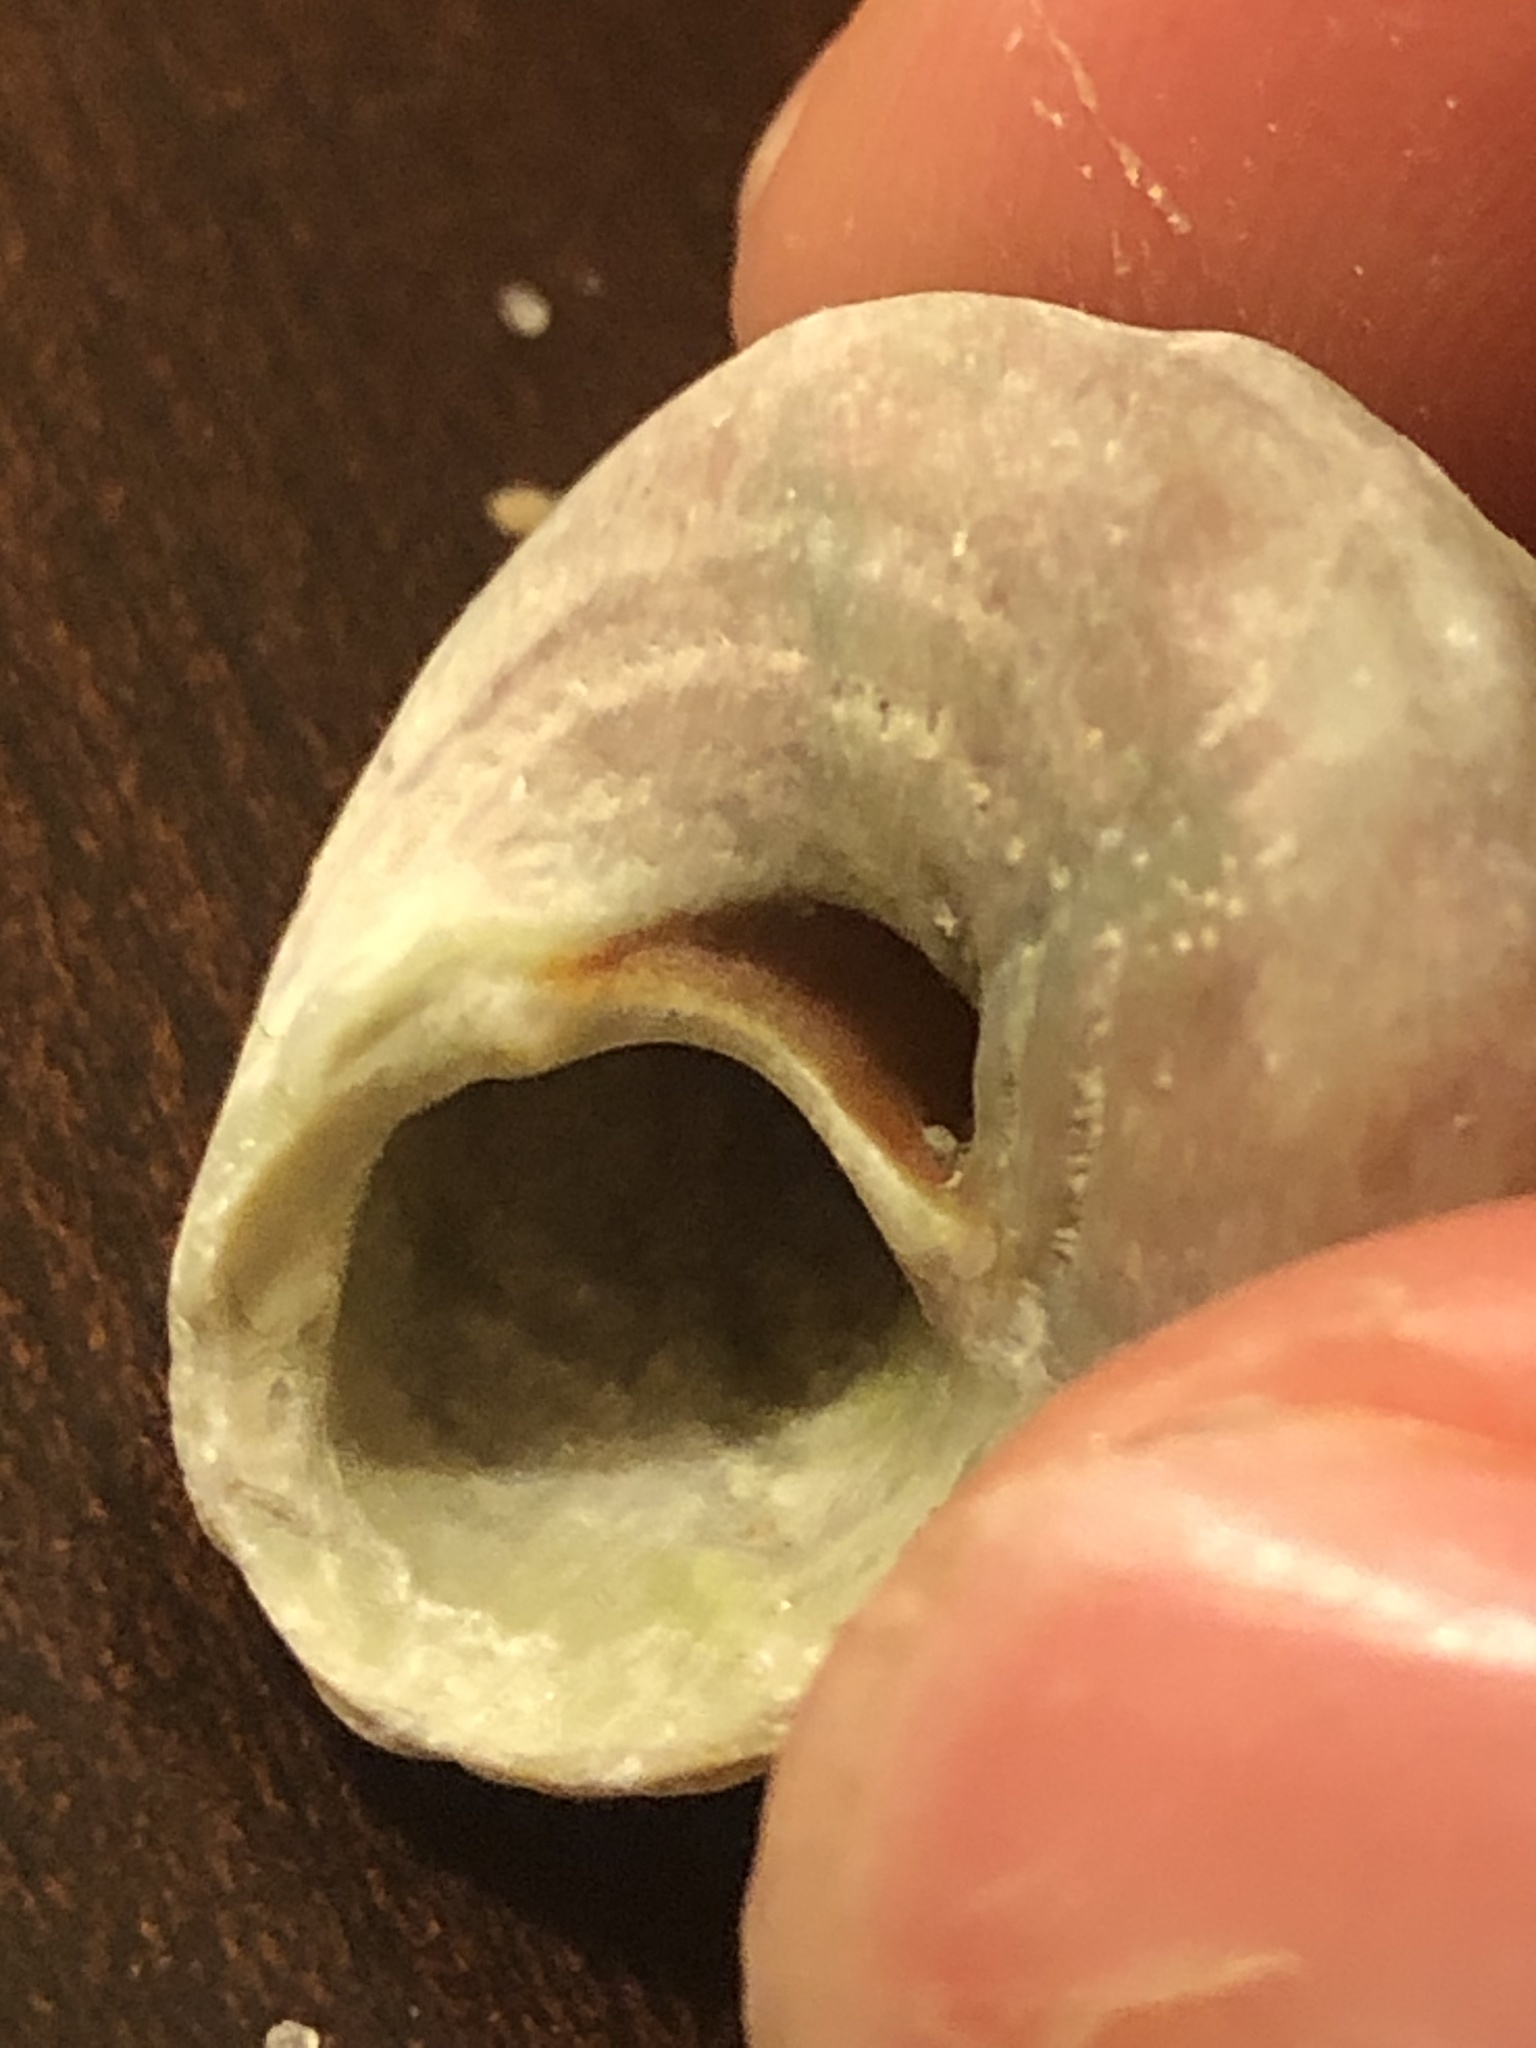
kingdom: Animalia
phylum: Mollusca
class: Gastropoda
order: Trochida
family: Tegulidae
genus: Tegula
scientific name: Tegula aureotincta
